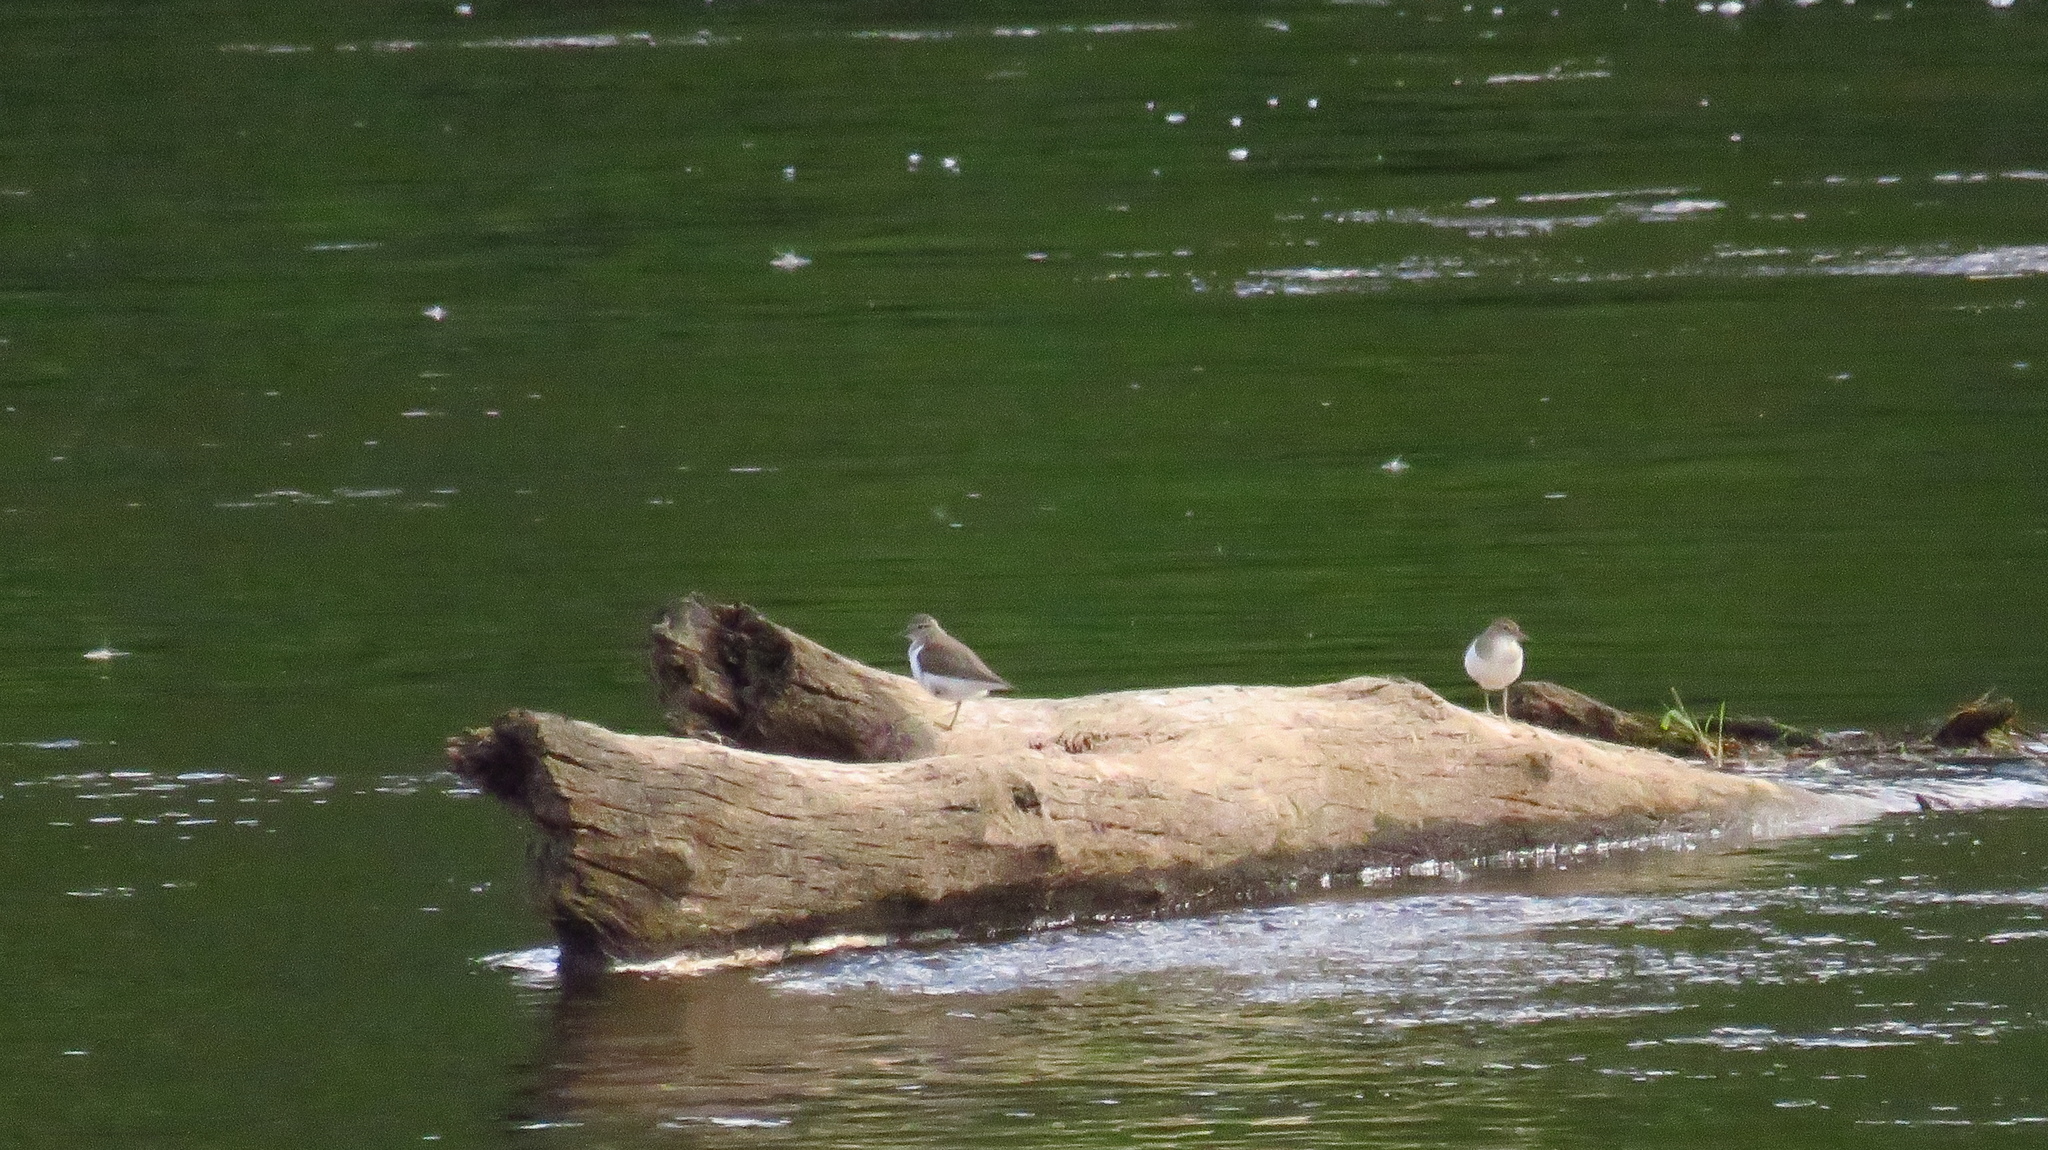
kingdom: Animalia
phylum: Chordata
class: Aves
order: Charadriiformes
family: Scolopacidae
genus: Actitis
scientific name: Actitis hypoleucos
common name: Common sandpiper
